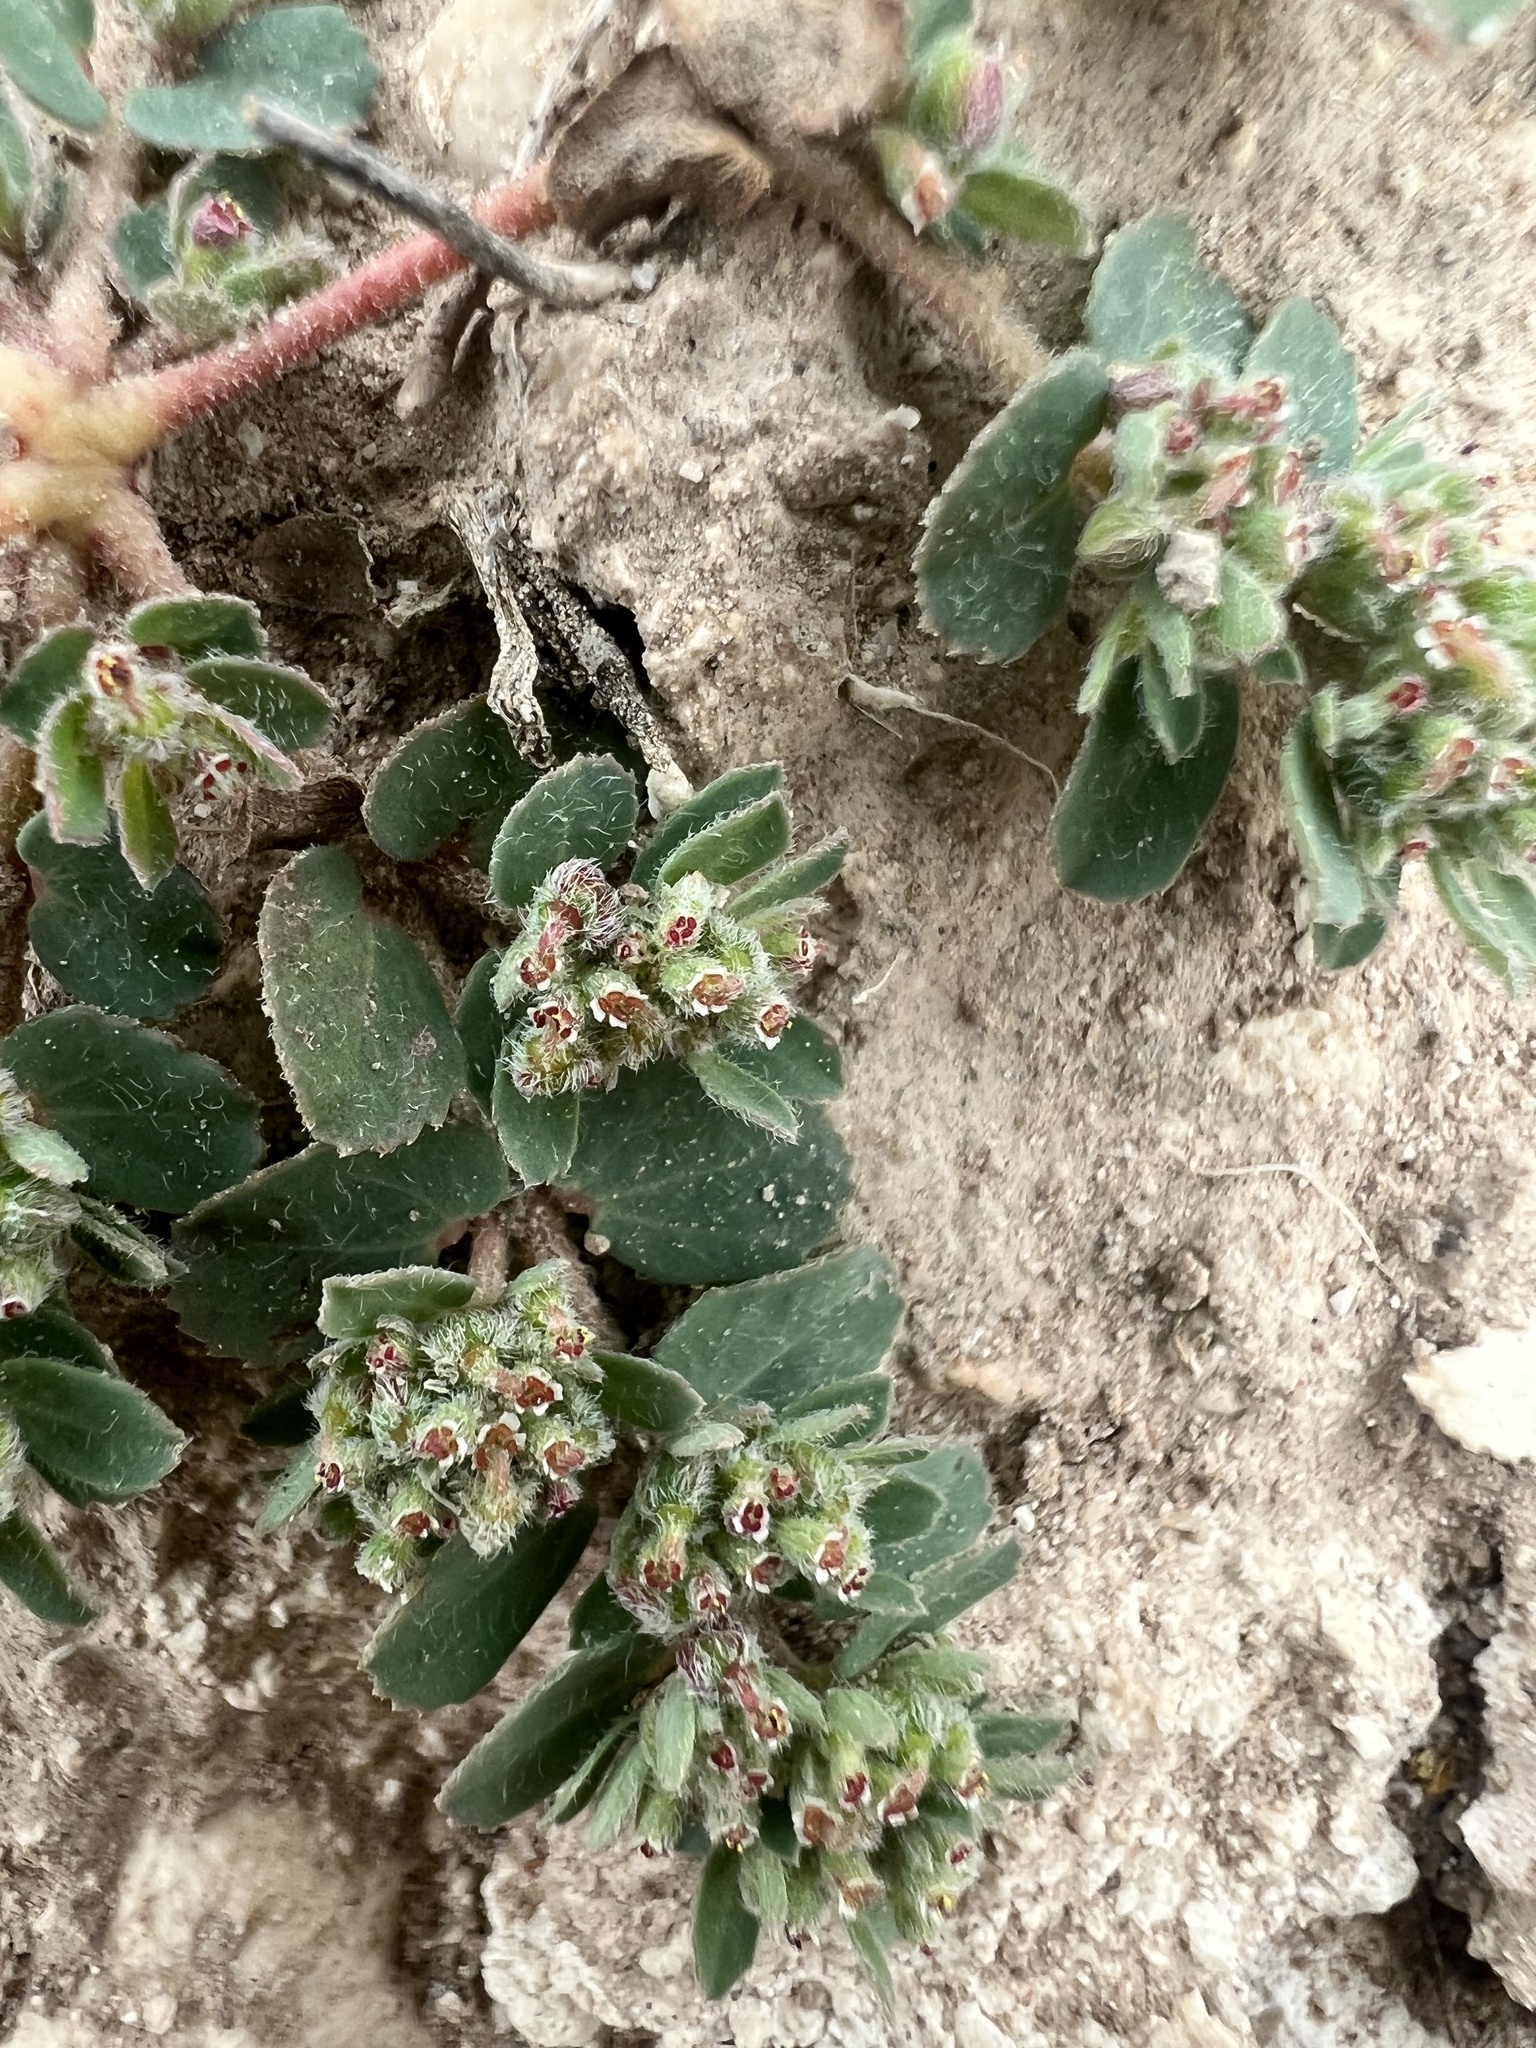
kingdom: Plantae
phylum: Tracheophyta
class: Magnoliopsida
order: Malpighiales
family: Euphorbiaceae
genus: Euphorbia
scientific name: Euphorbia stictospora
